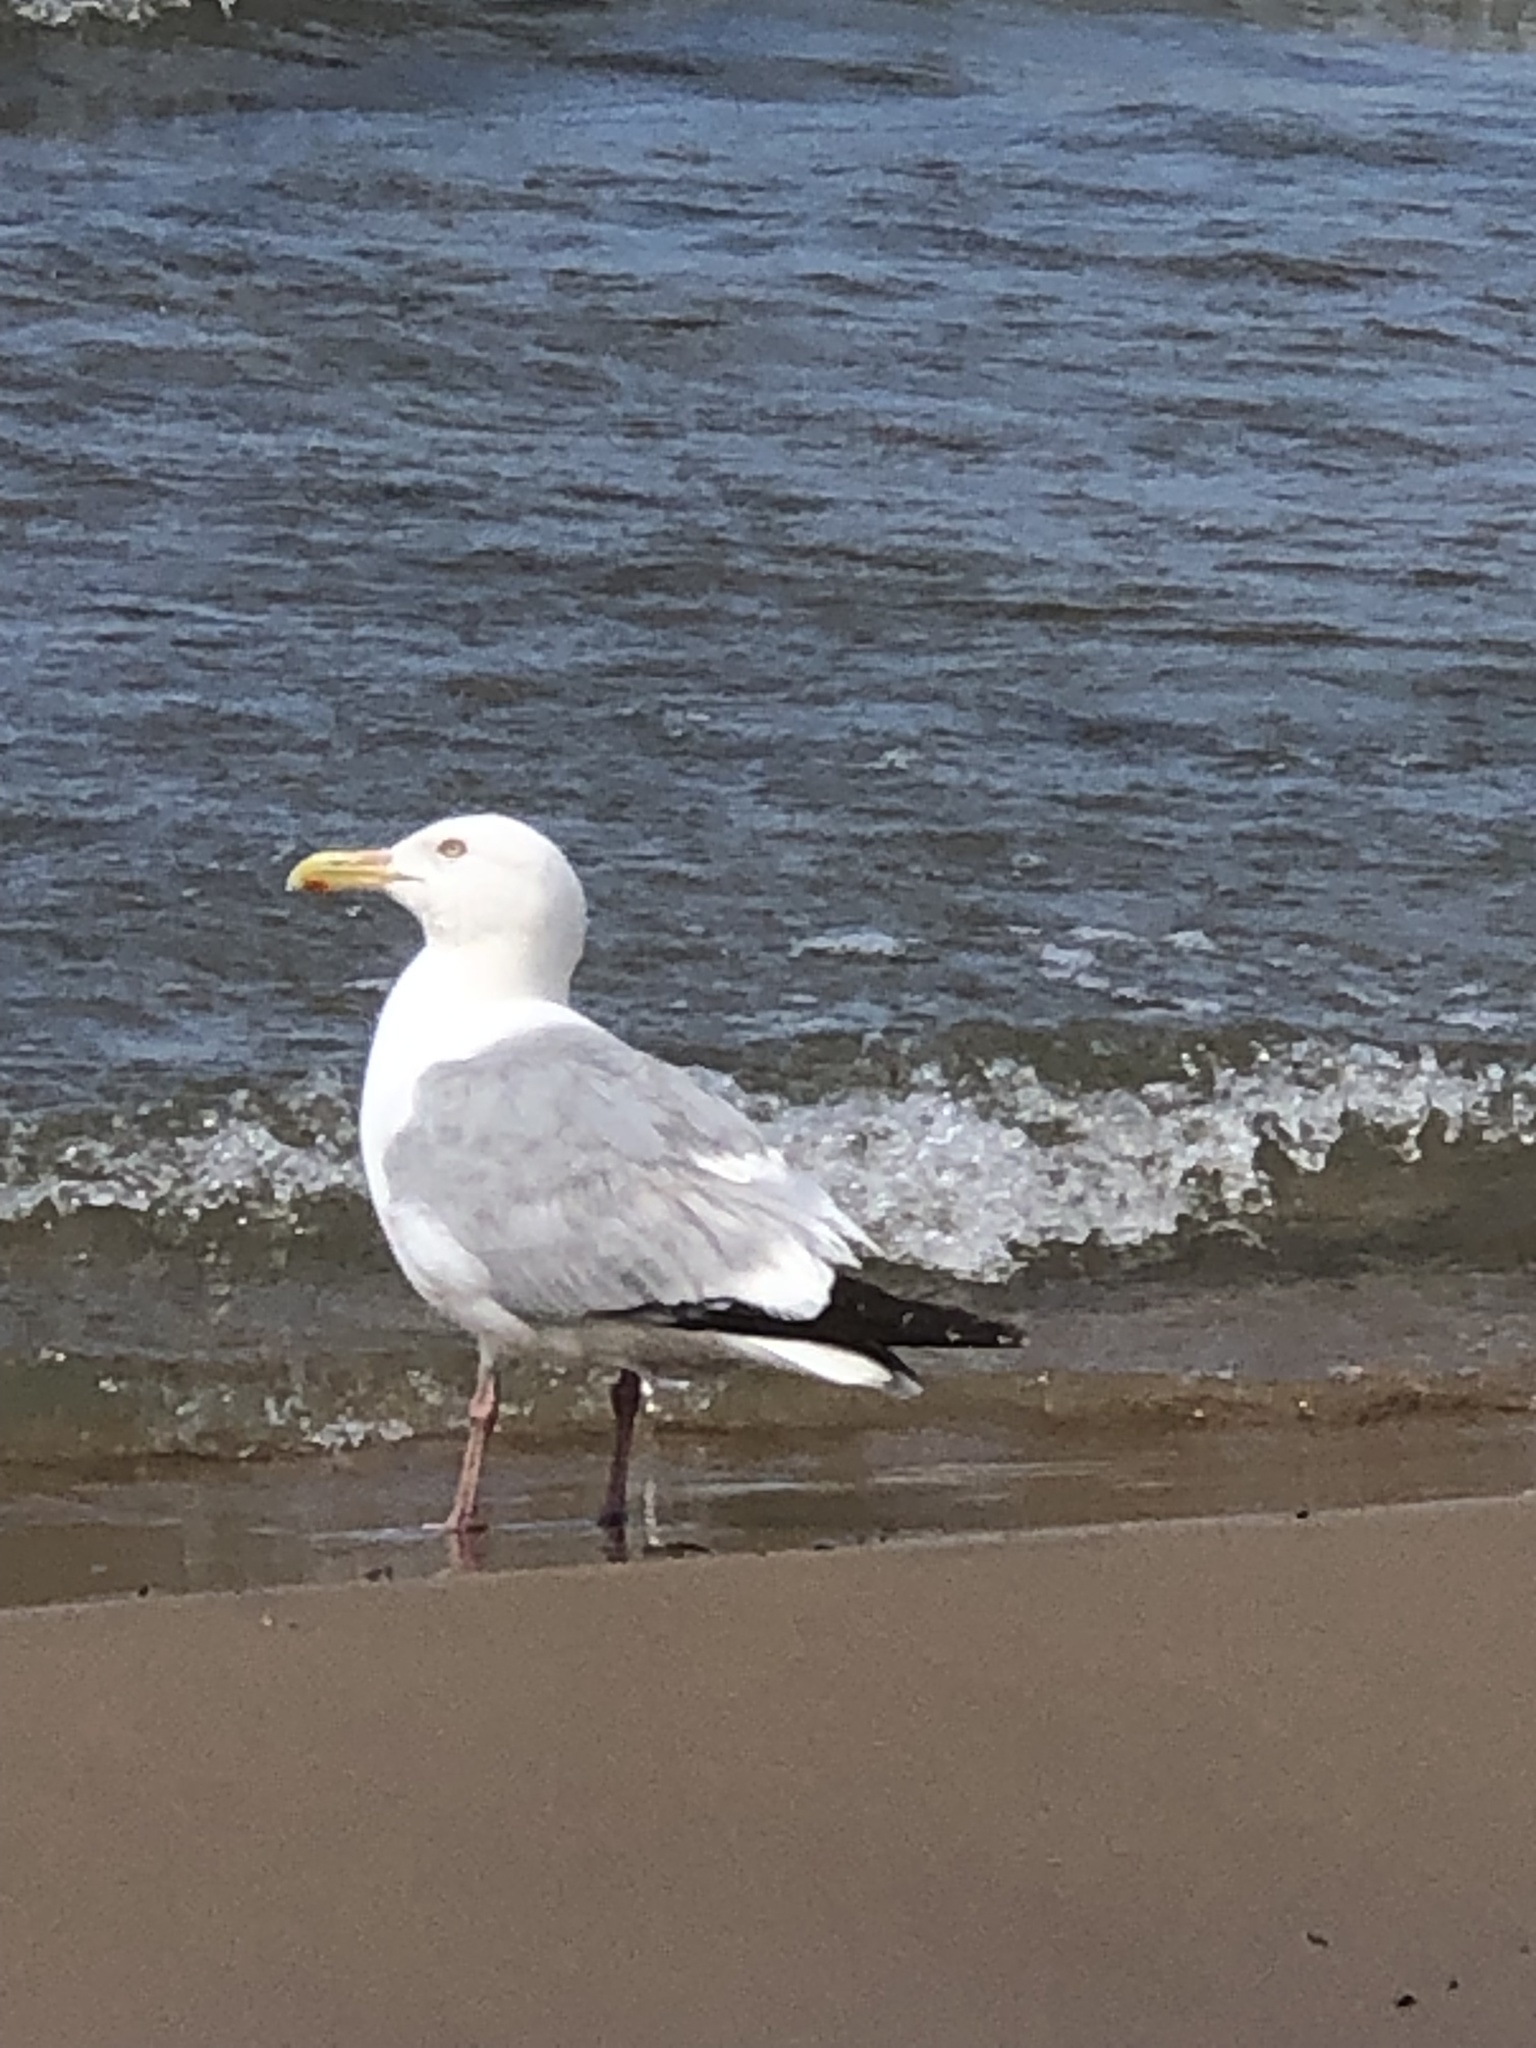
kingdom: Animalia
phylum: Chordata
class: Aves
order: Charadriiformes
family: Laridae
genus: Larus
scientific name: Larus argentatus
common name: Herring gull
